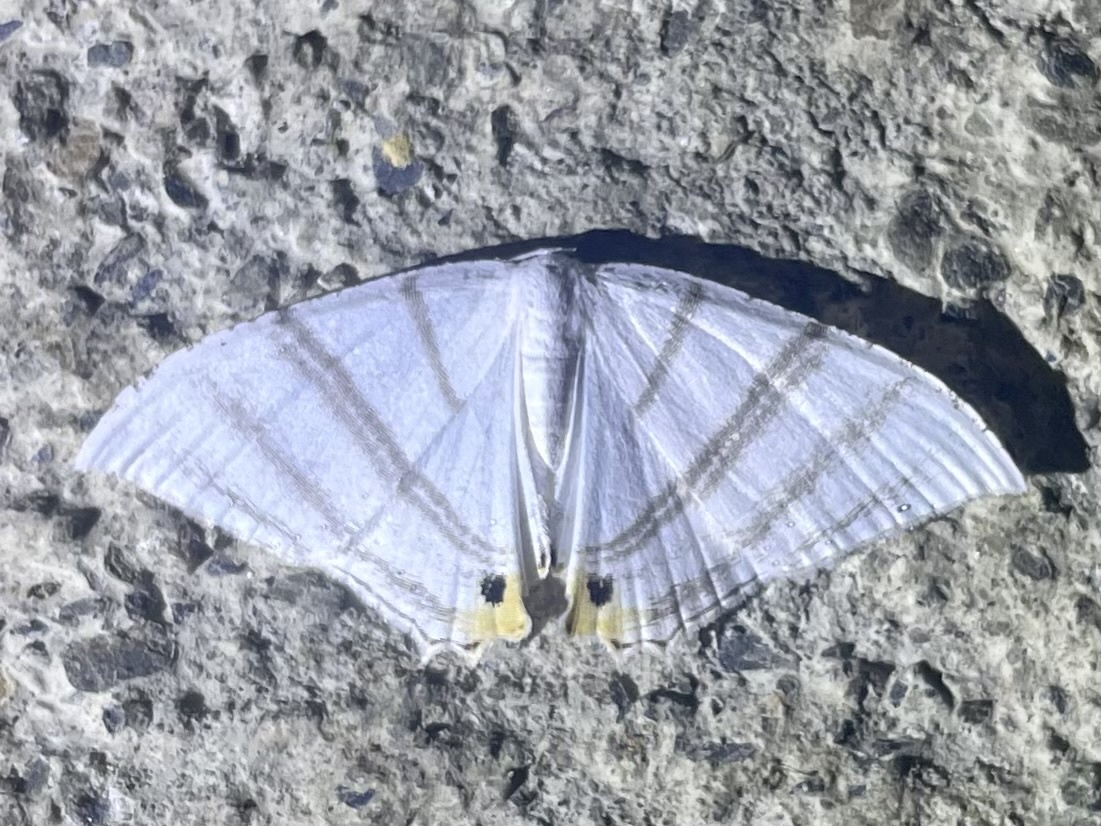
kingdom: Animalia
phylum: Arthropoda
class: Insecta
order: Lepidoptera
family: Uraniidae
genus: Epiplema
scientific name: Epiplema albipennaria
